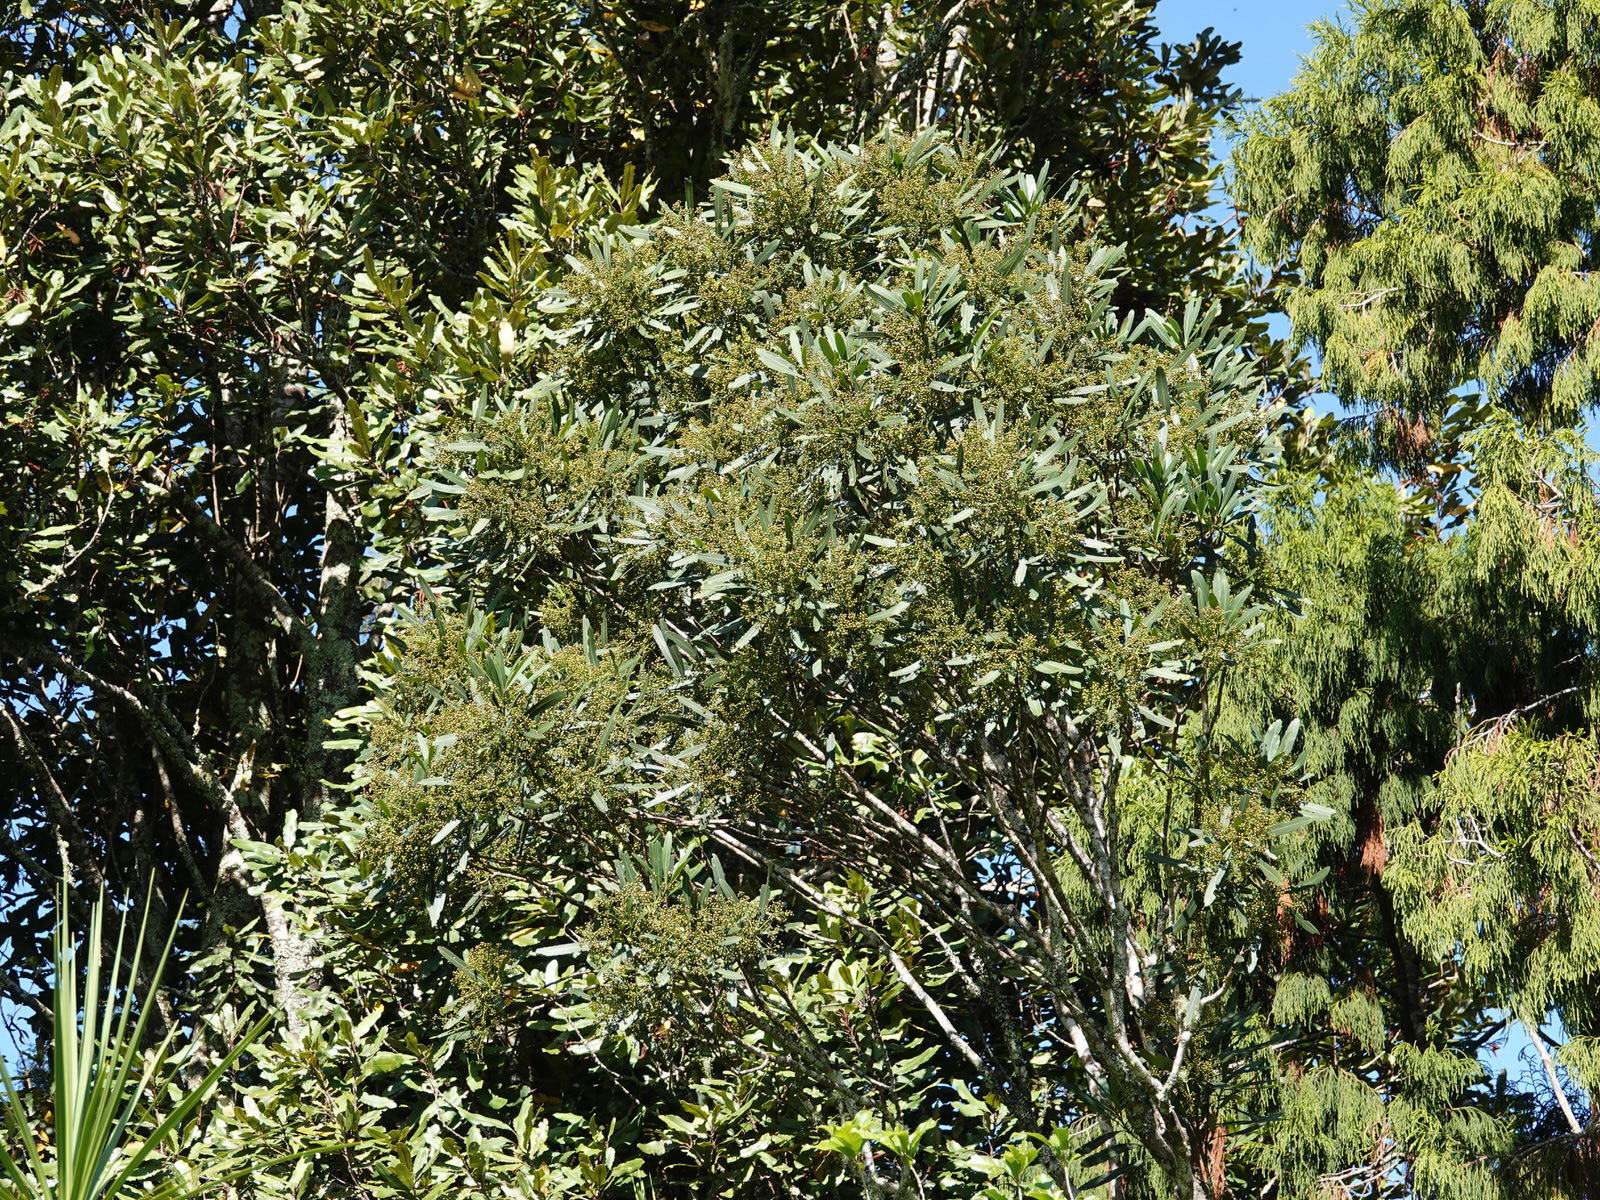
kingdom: Plantae
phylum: Tracheophyta
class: Magnoliopsida
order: Apiales
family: Araliaceae
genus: Pseudopanax
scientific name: Pseudopanax crassifolius
